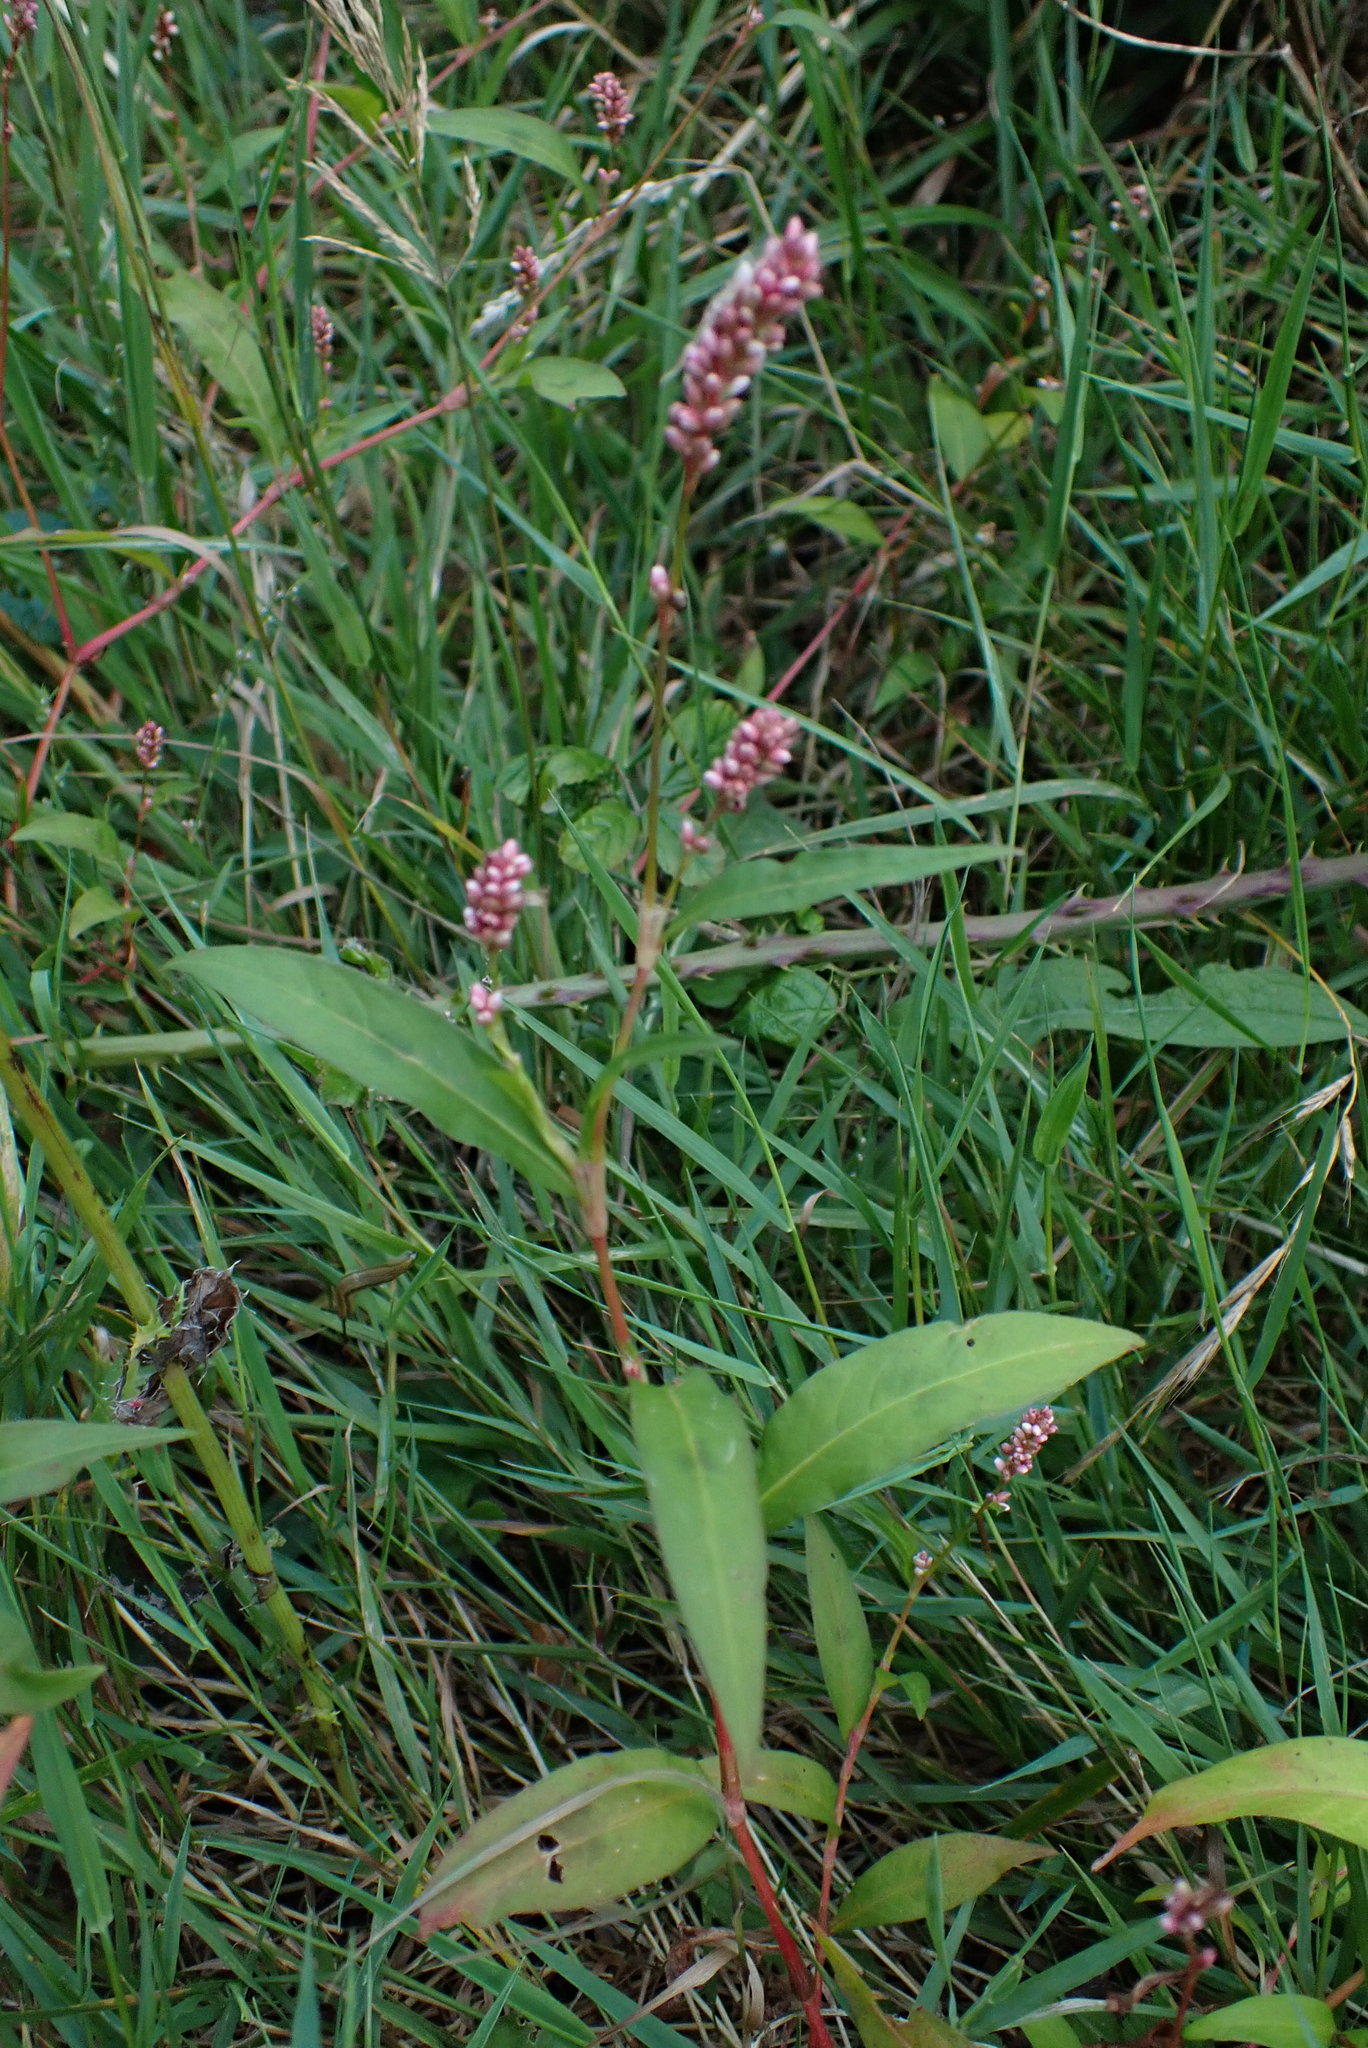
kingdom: Plantae
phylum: Tracheophyta
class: Magnoliopsida
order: Caryophyllales
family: Polygonaceae
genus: Persicaria
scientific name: Persicaria maculosa
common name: Redshank
